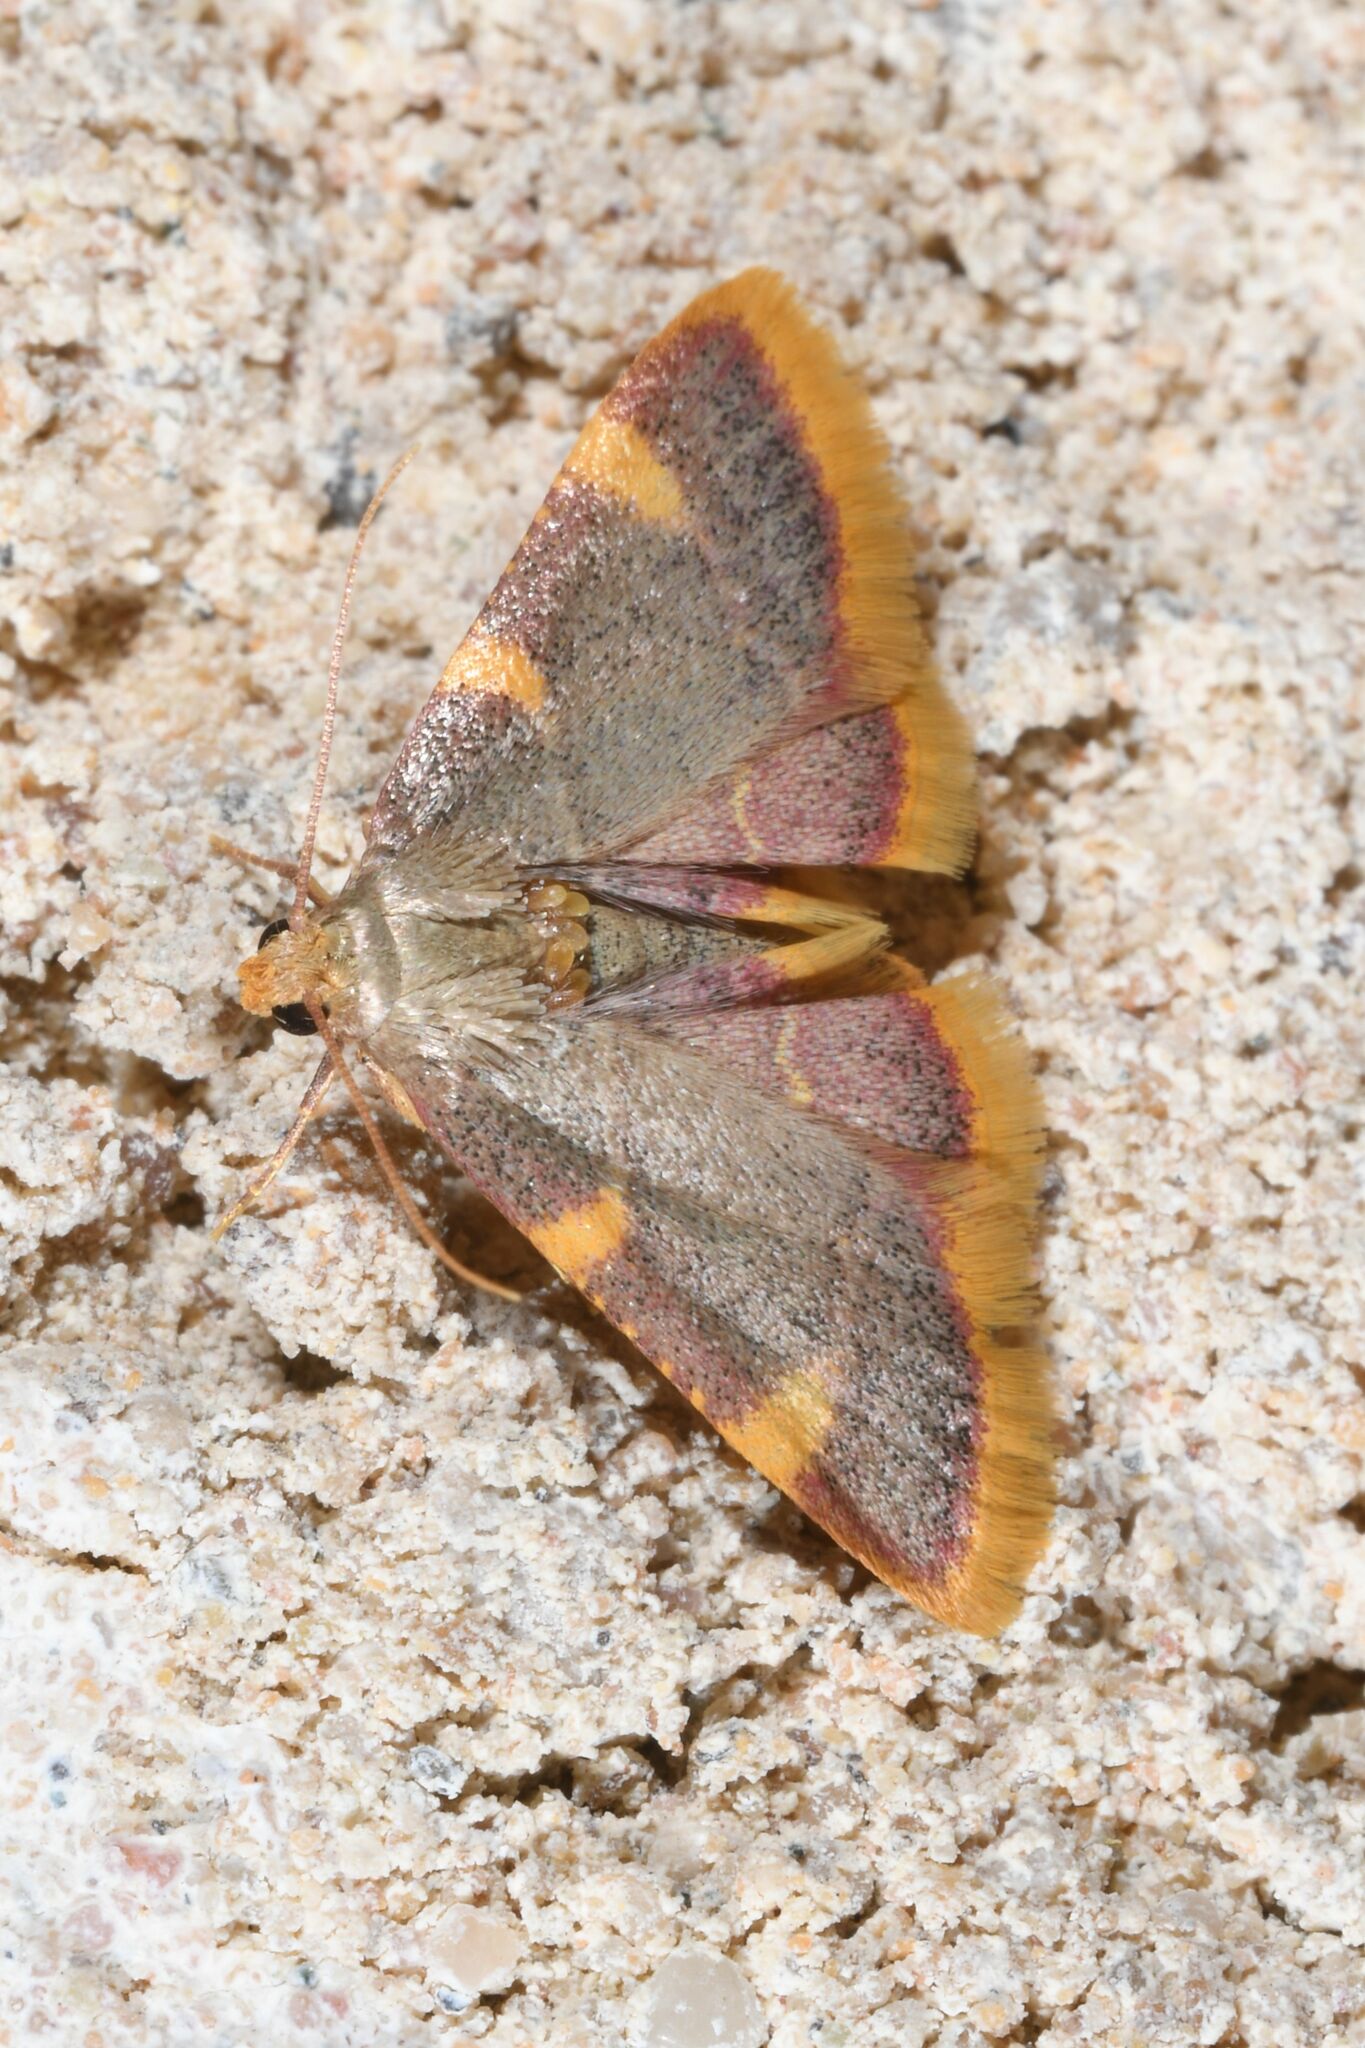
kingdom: Animalia
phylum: Arthropoda
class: Insecta
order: Lepidoptera
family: Pyralidae
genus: Hypsopygia
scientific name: Hypsopygia costalis
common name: Gold triangle
